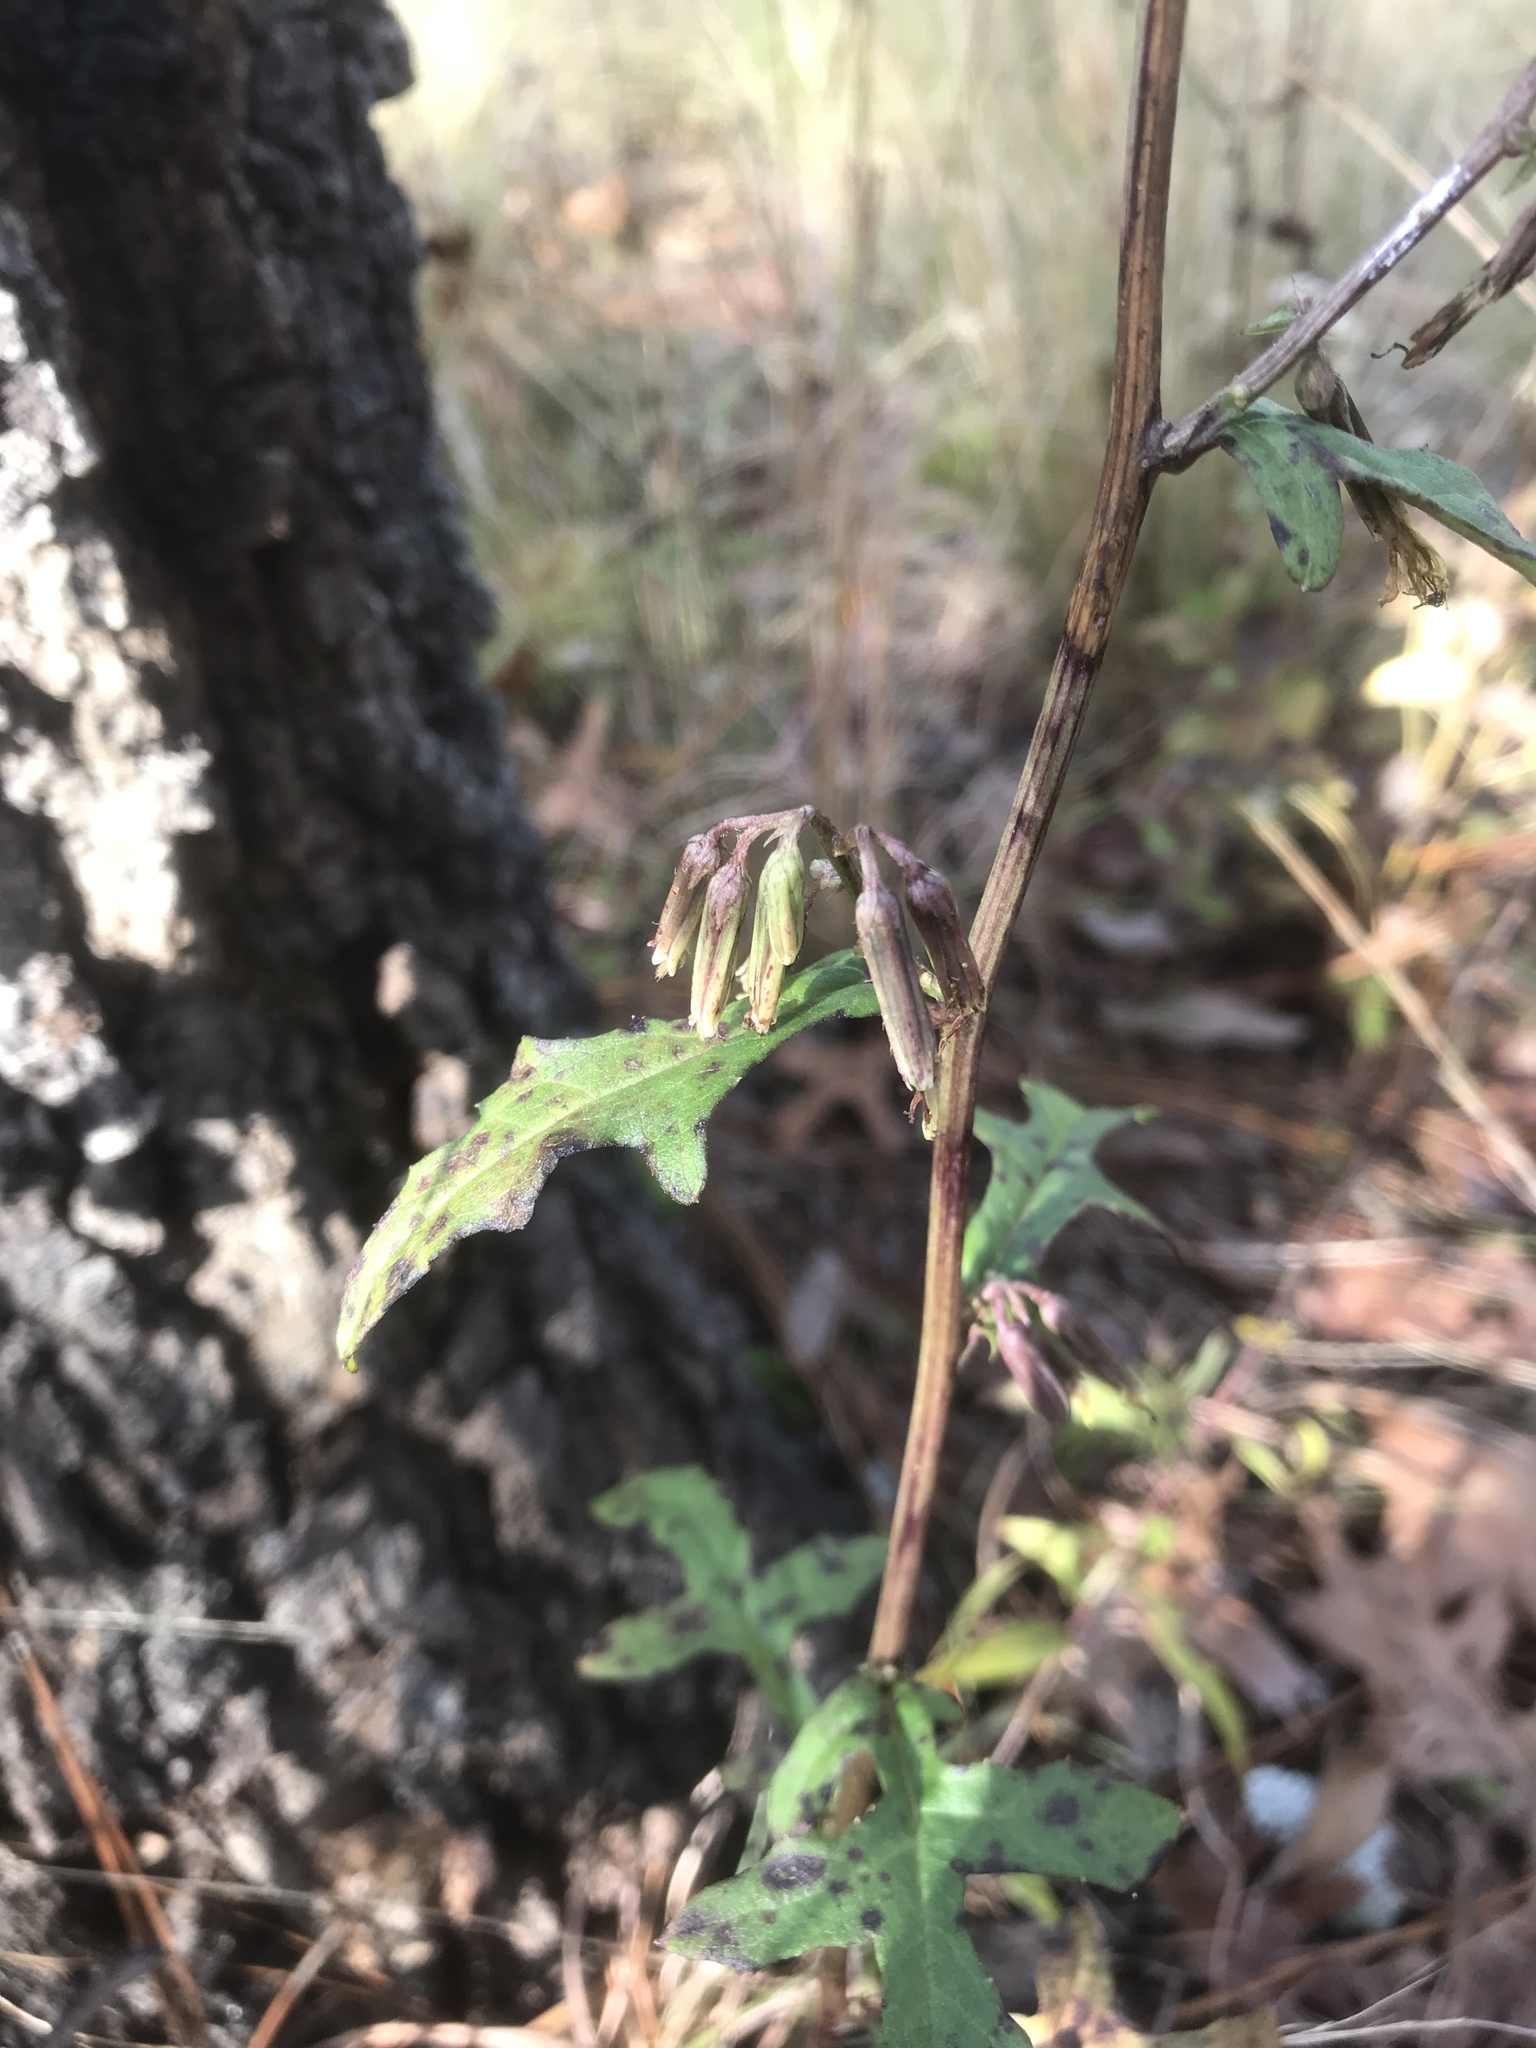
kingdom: Plantae
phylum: Tracheophyta
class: Magnoliopsida
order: Asterales
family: Asteraceae
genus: Nabalus
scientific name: Nabalus serpentarius
